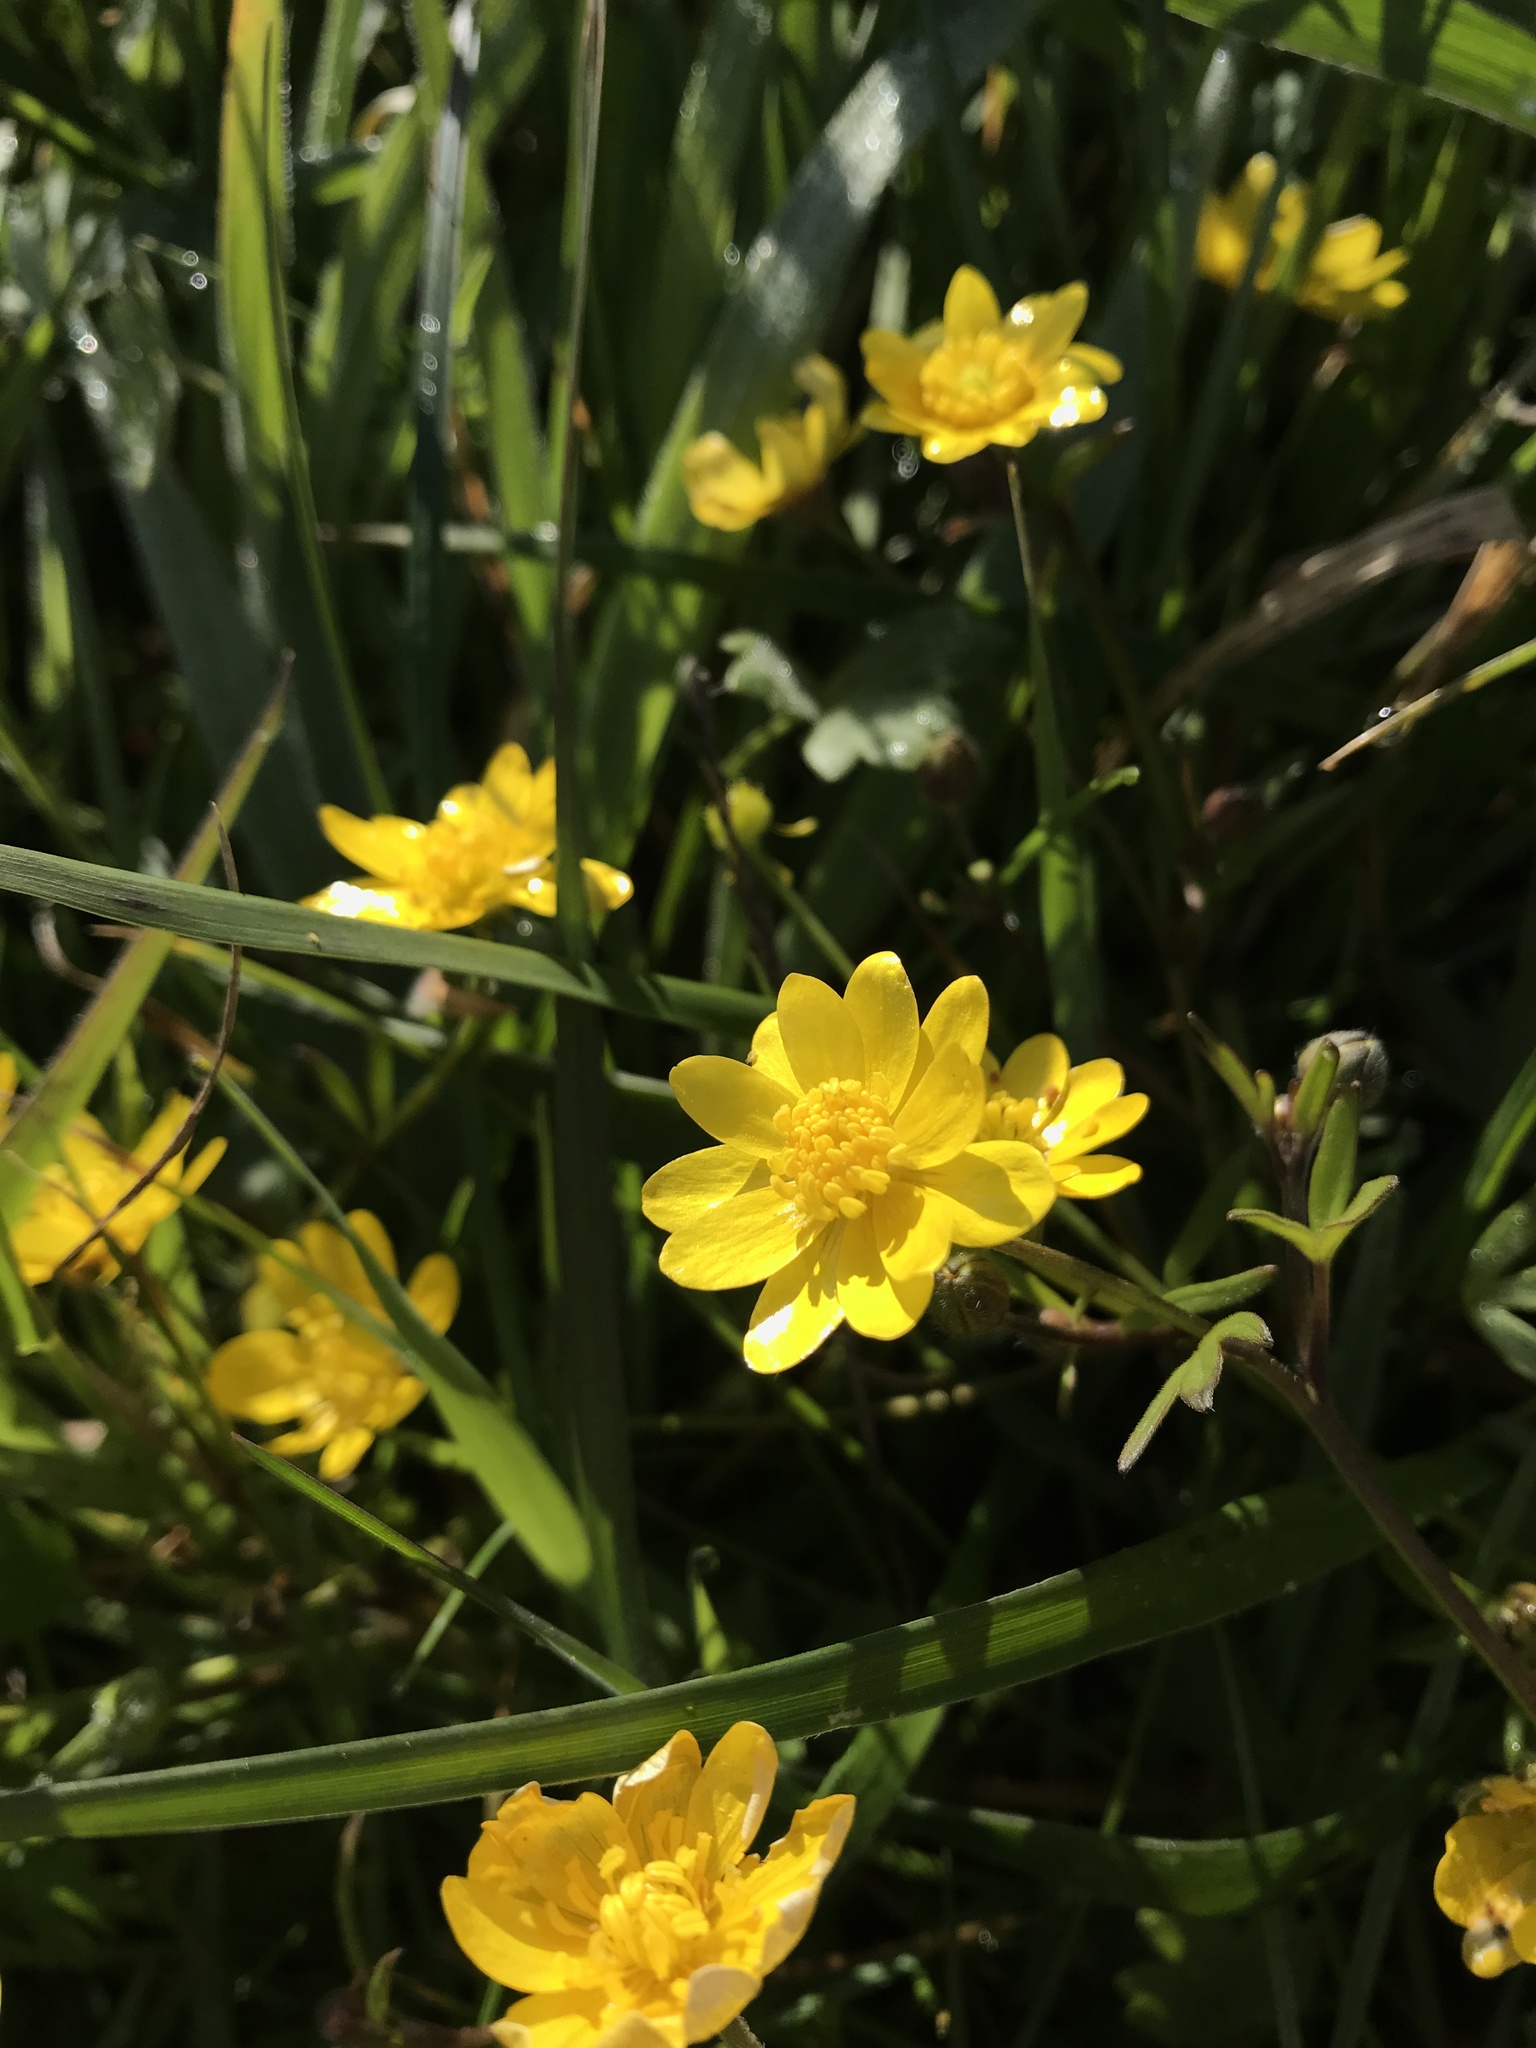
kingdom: Plantae
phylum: Tracheophyta
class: Magnoliopsida
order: Ranunculales
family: Ranunculaceae
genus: Ranunculus
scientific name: Ranunculus californicus
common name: California buttercup
